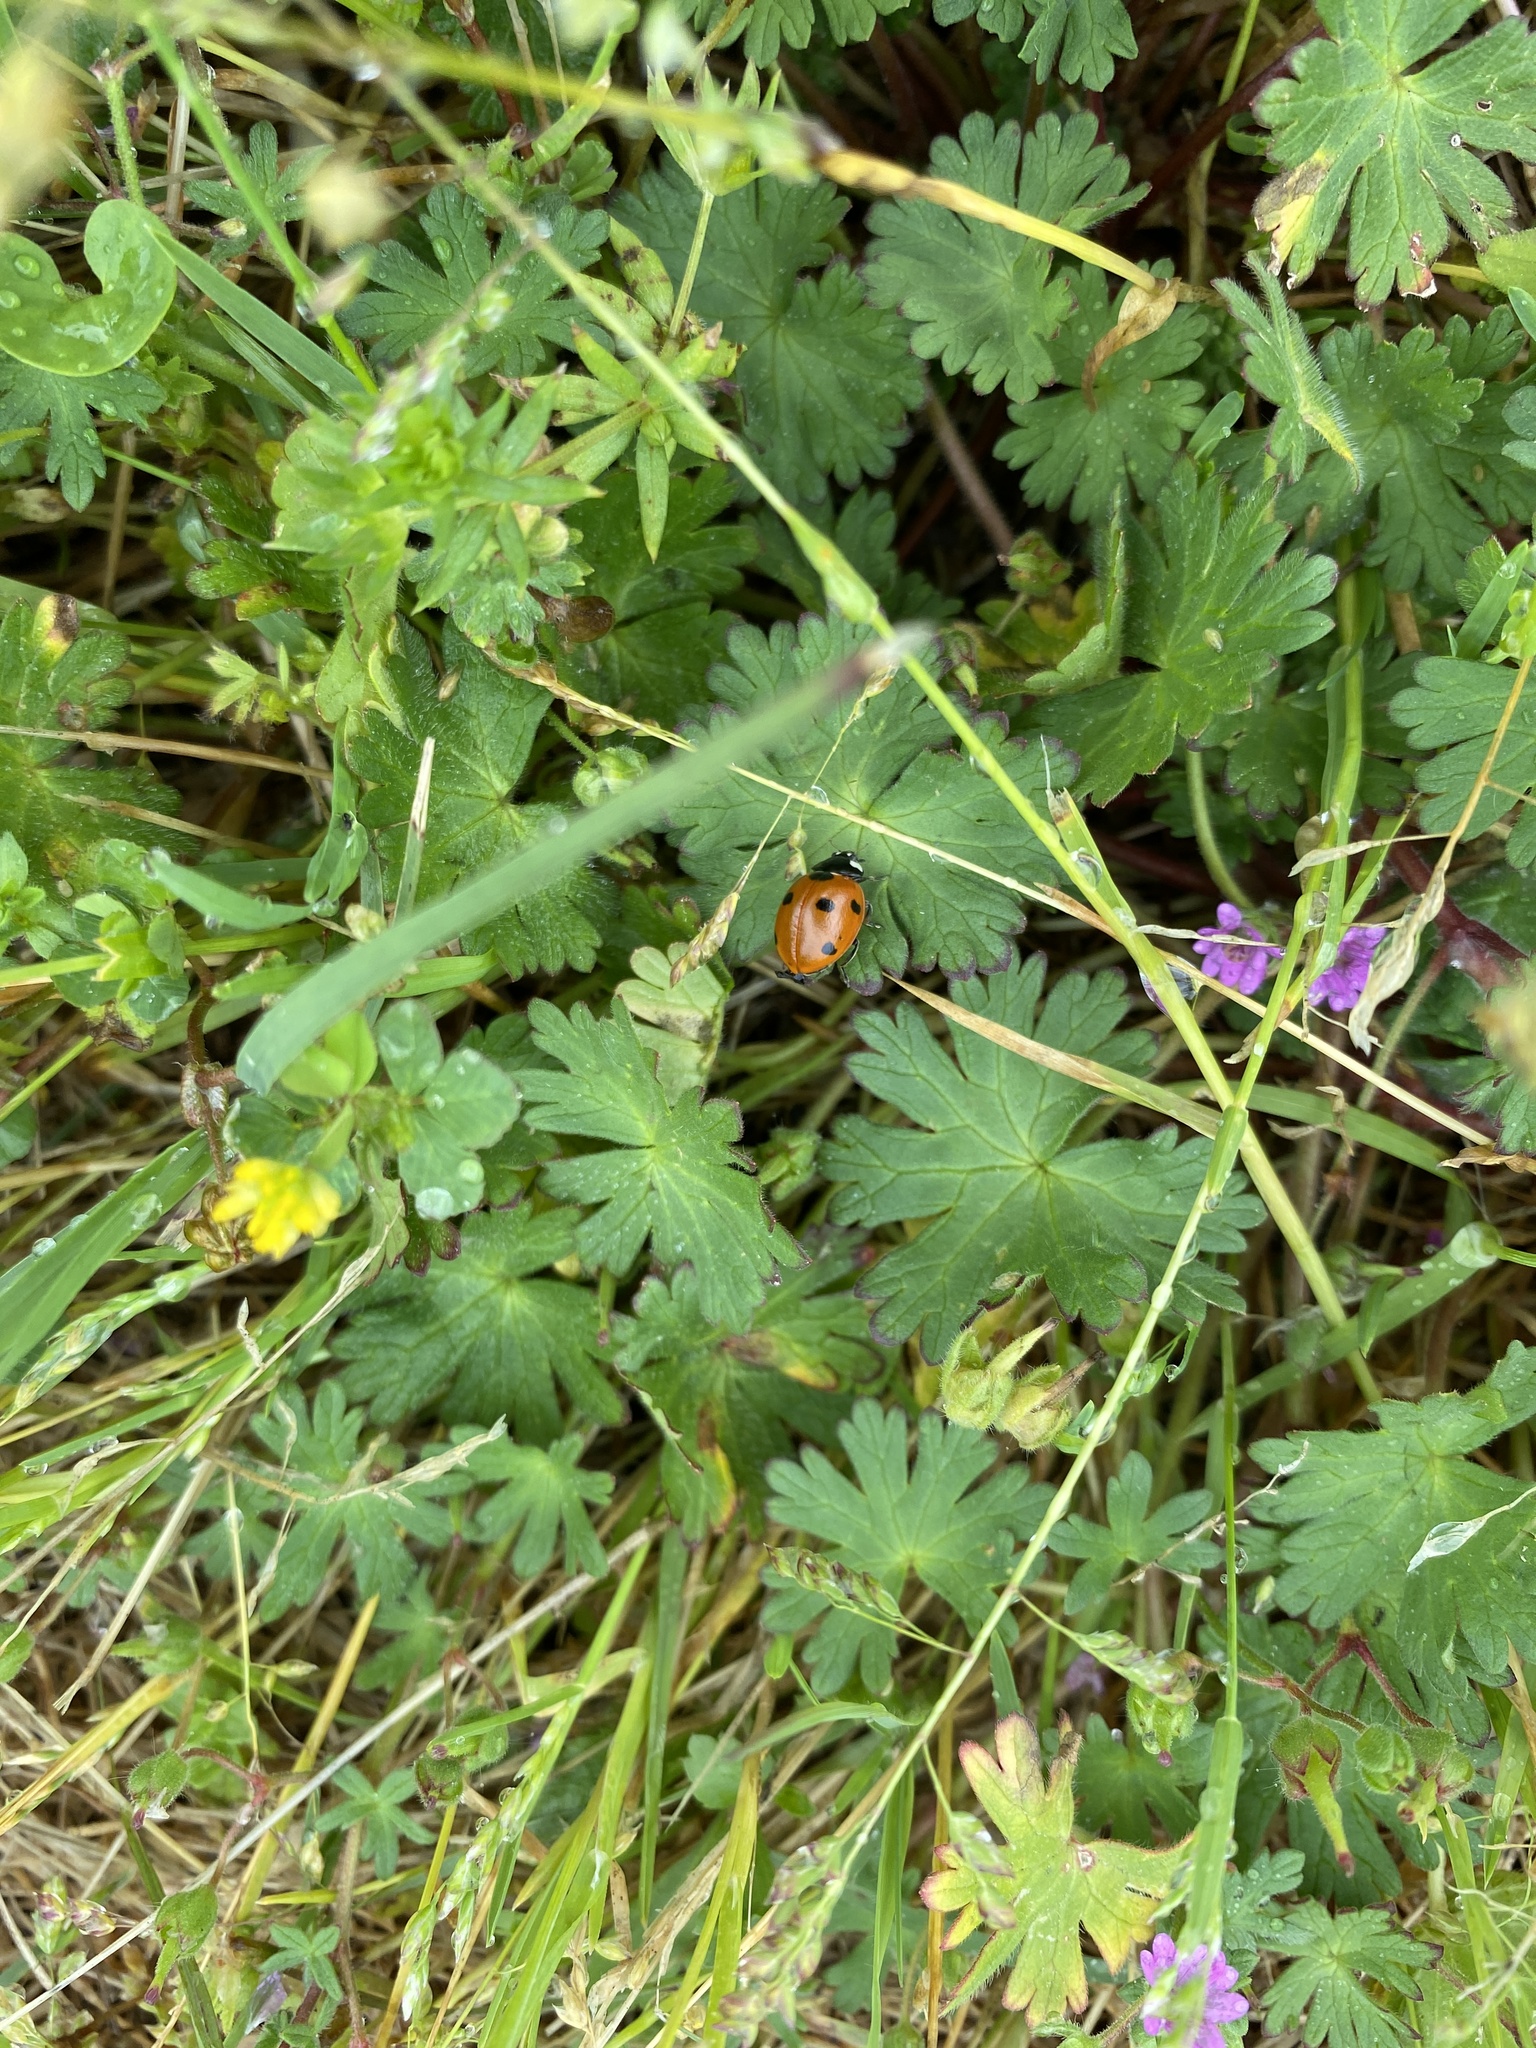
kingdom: Animalia
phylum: Arthropoda
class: Insecta
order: Coleoptera
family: Coccinellidae
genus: Coccinella
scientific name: Coccinella septempunctata
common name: Sevenspotted lady beetle
